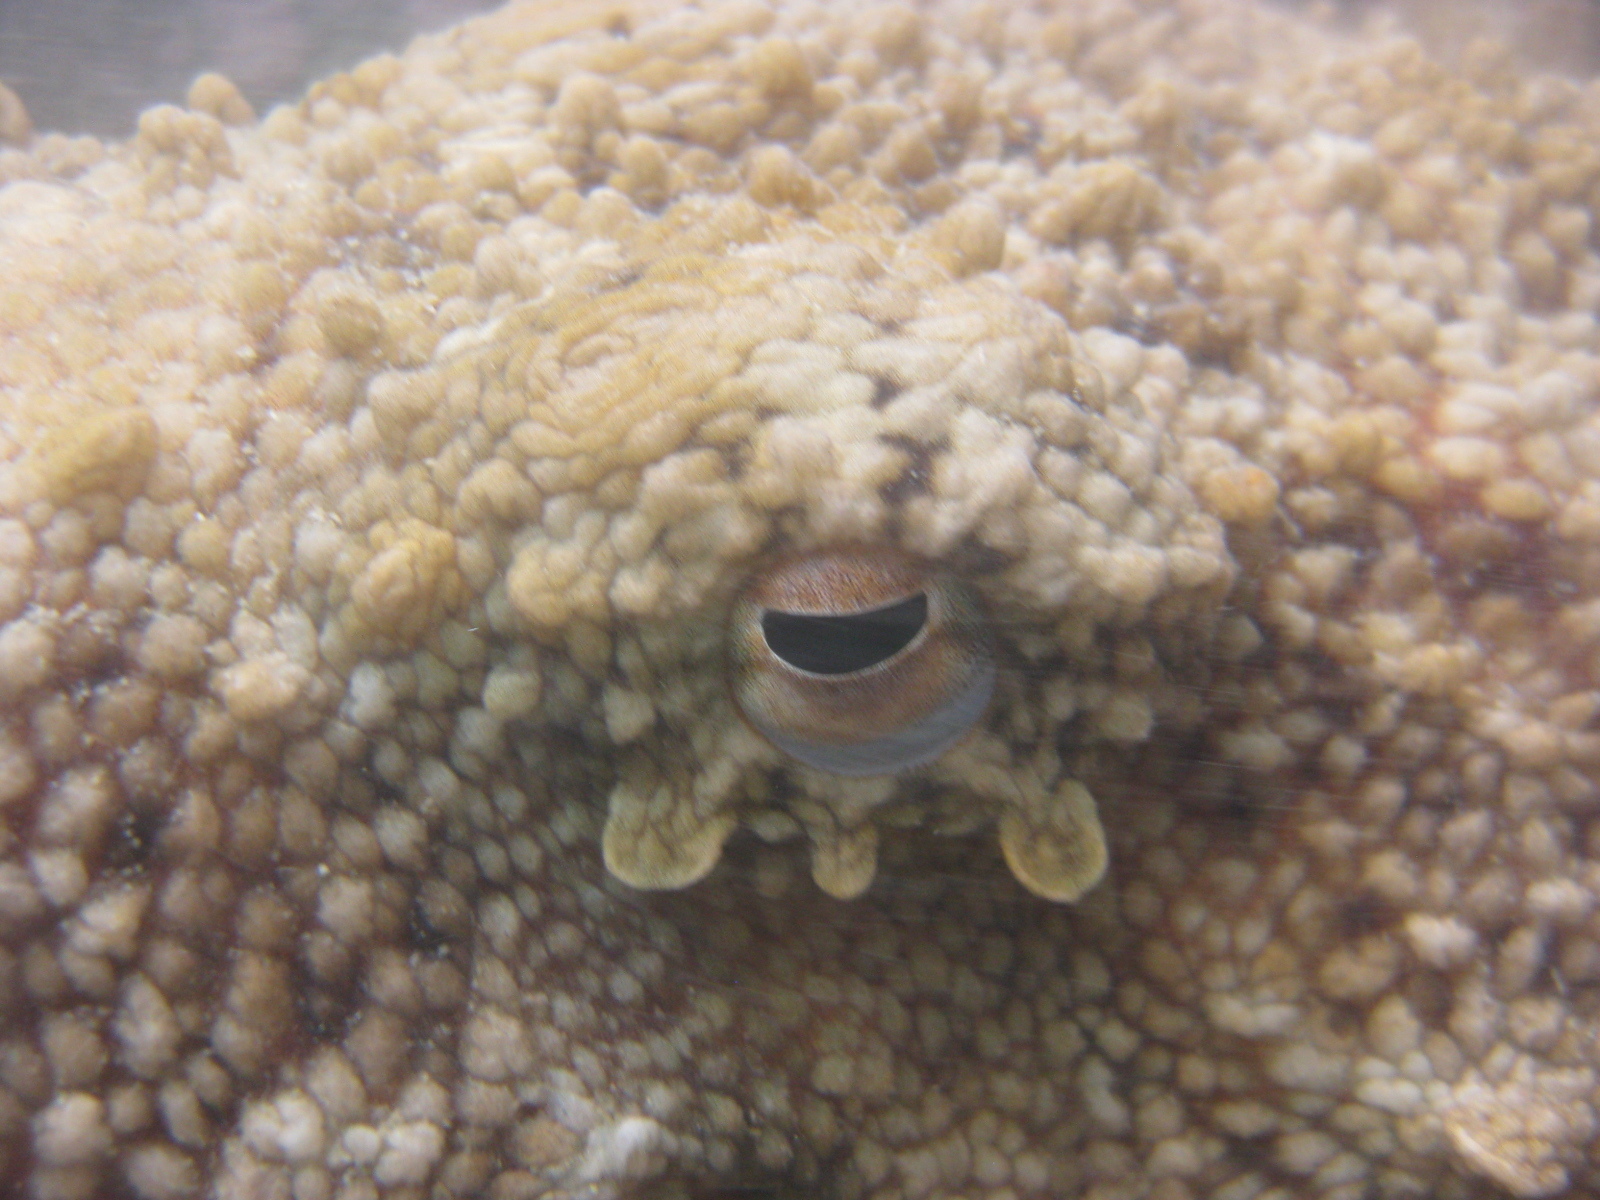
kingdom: Animalia
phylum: Mollusca
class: Cephalopoda
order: Octopoda
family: Octopodidae
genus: Octopus
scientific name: Octopus tetricus
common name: Sydney octopus
